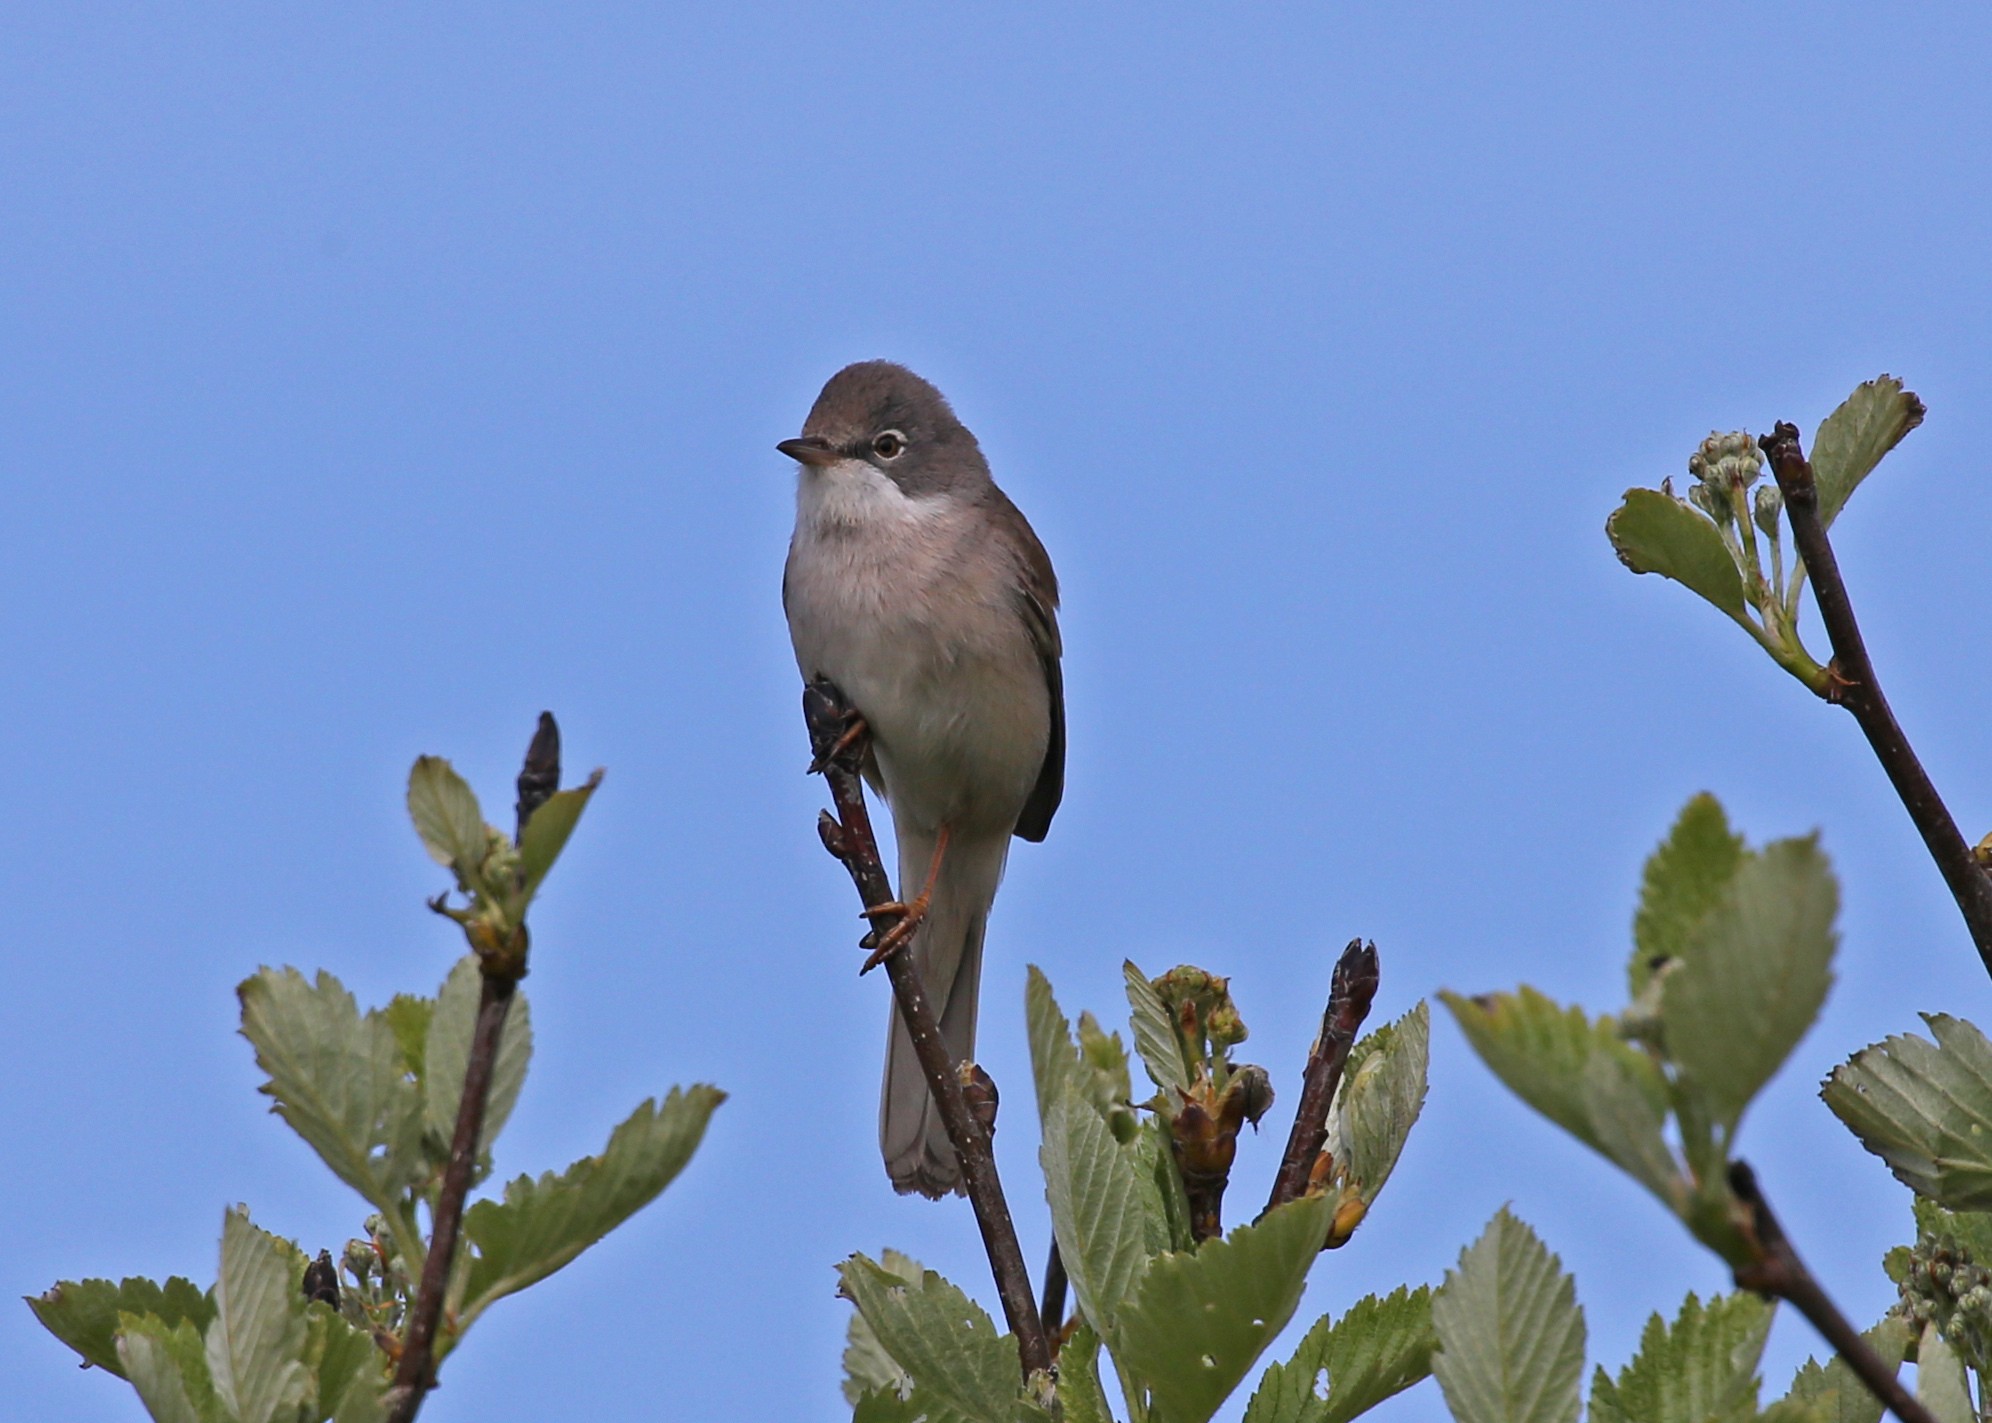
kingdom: Animalia
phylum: Chordata
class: Aves
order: Passeriformes
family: Sylviidae
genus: Sylvia
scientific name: Sylvia communis
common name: Common whitethroat
